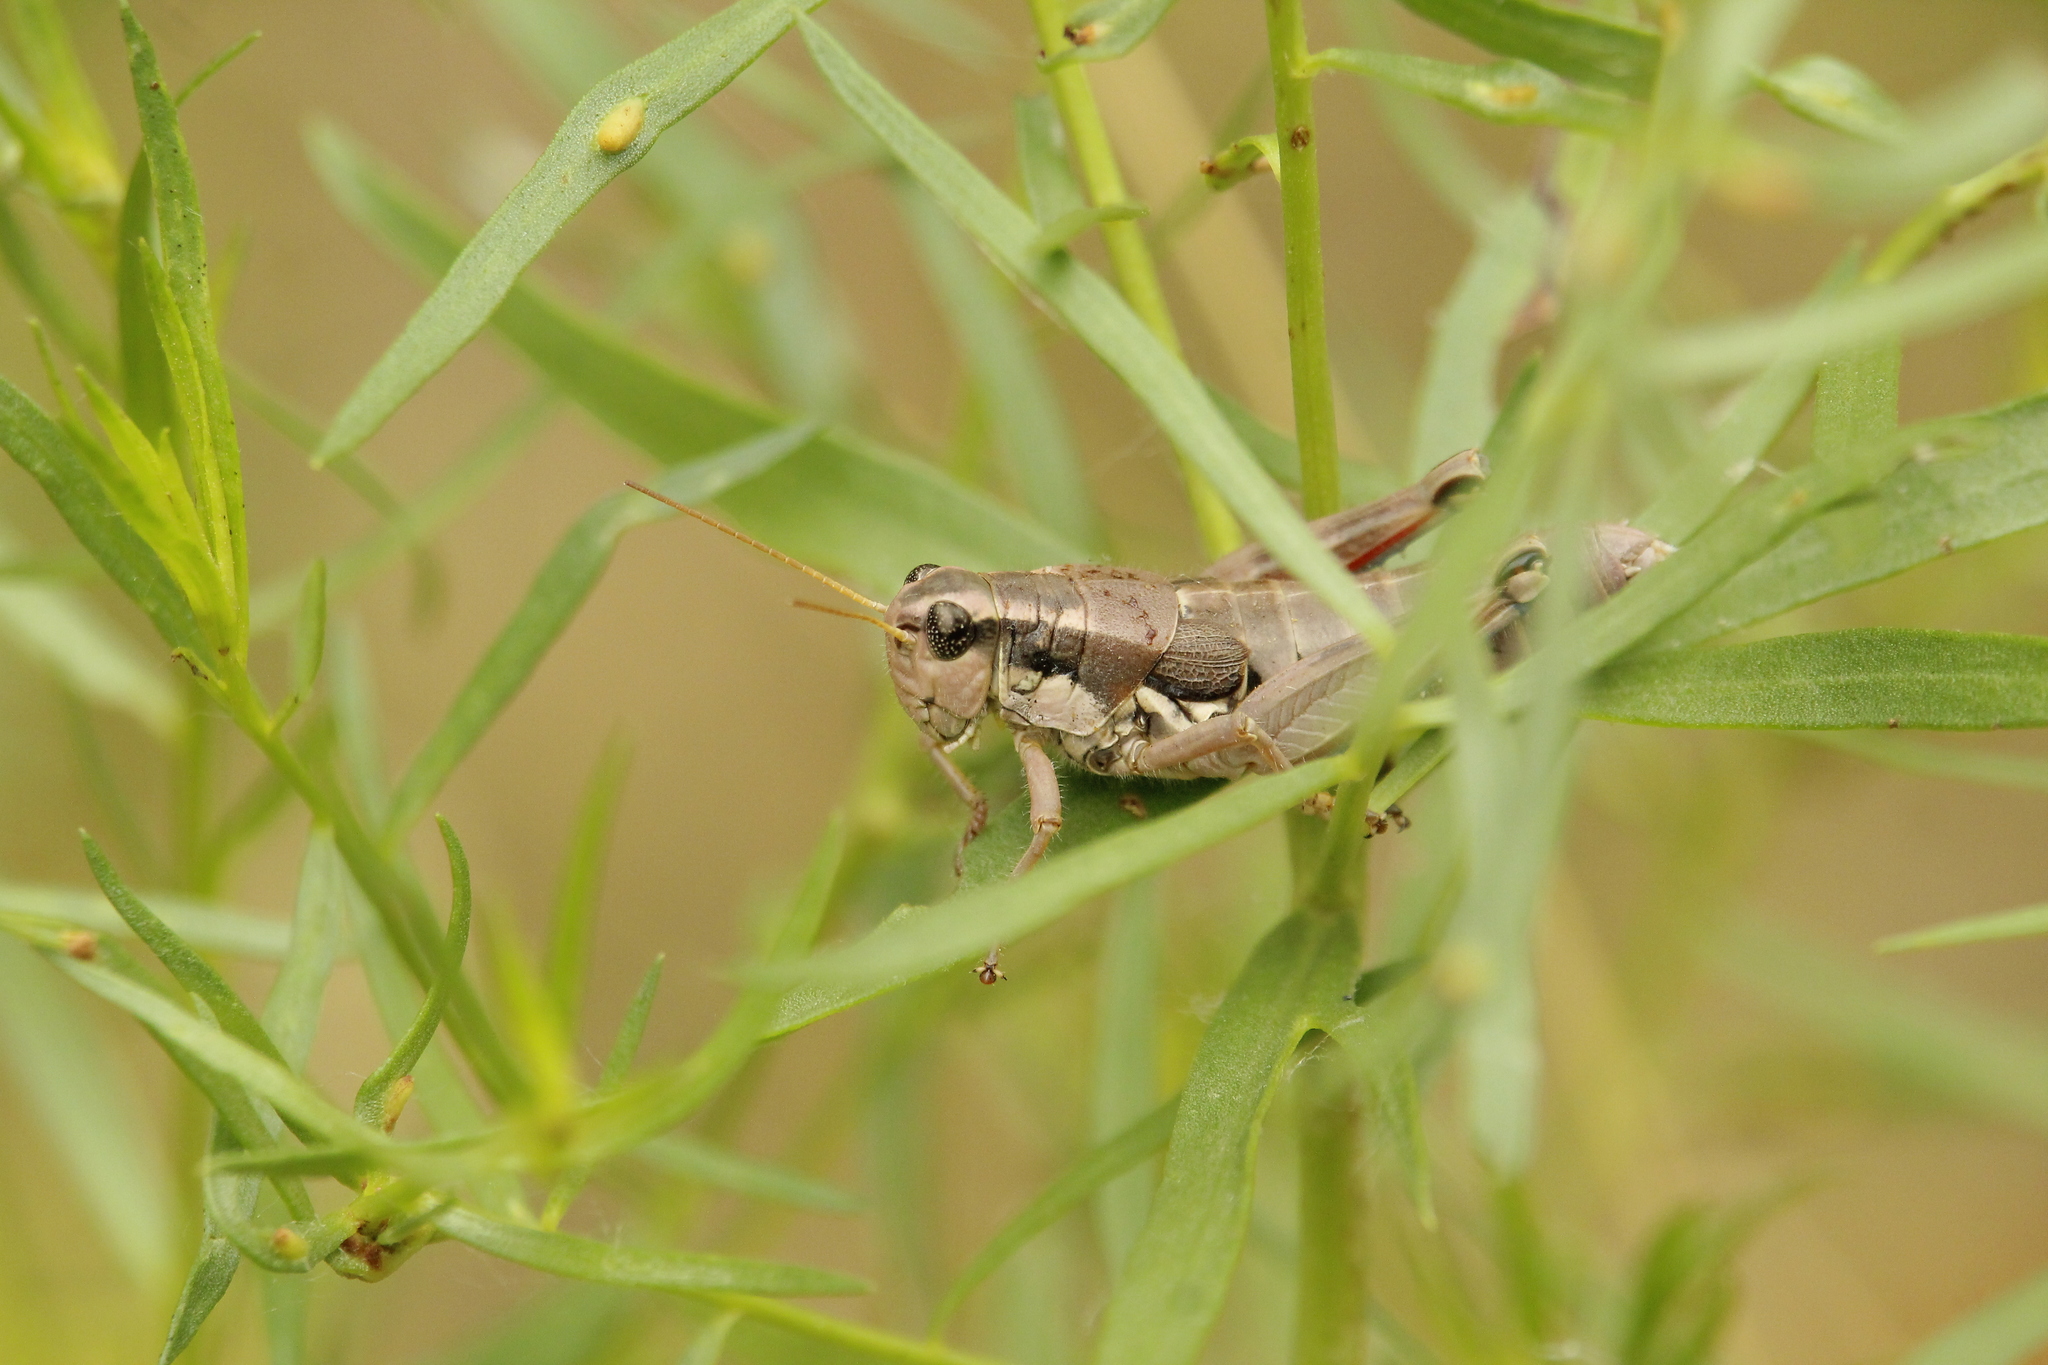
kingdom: Animalia
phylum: Arthropoda
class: Insecta
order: Orthoptera
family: Acrididae
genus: Podisma
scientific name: Podisma pedestris
